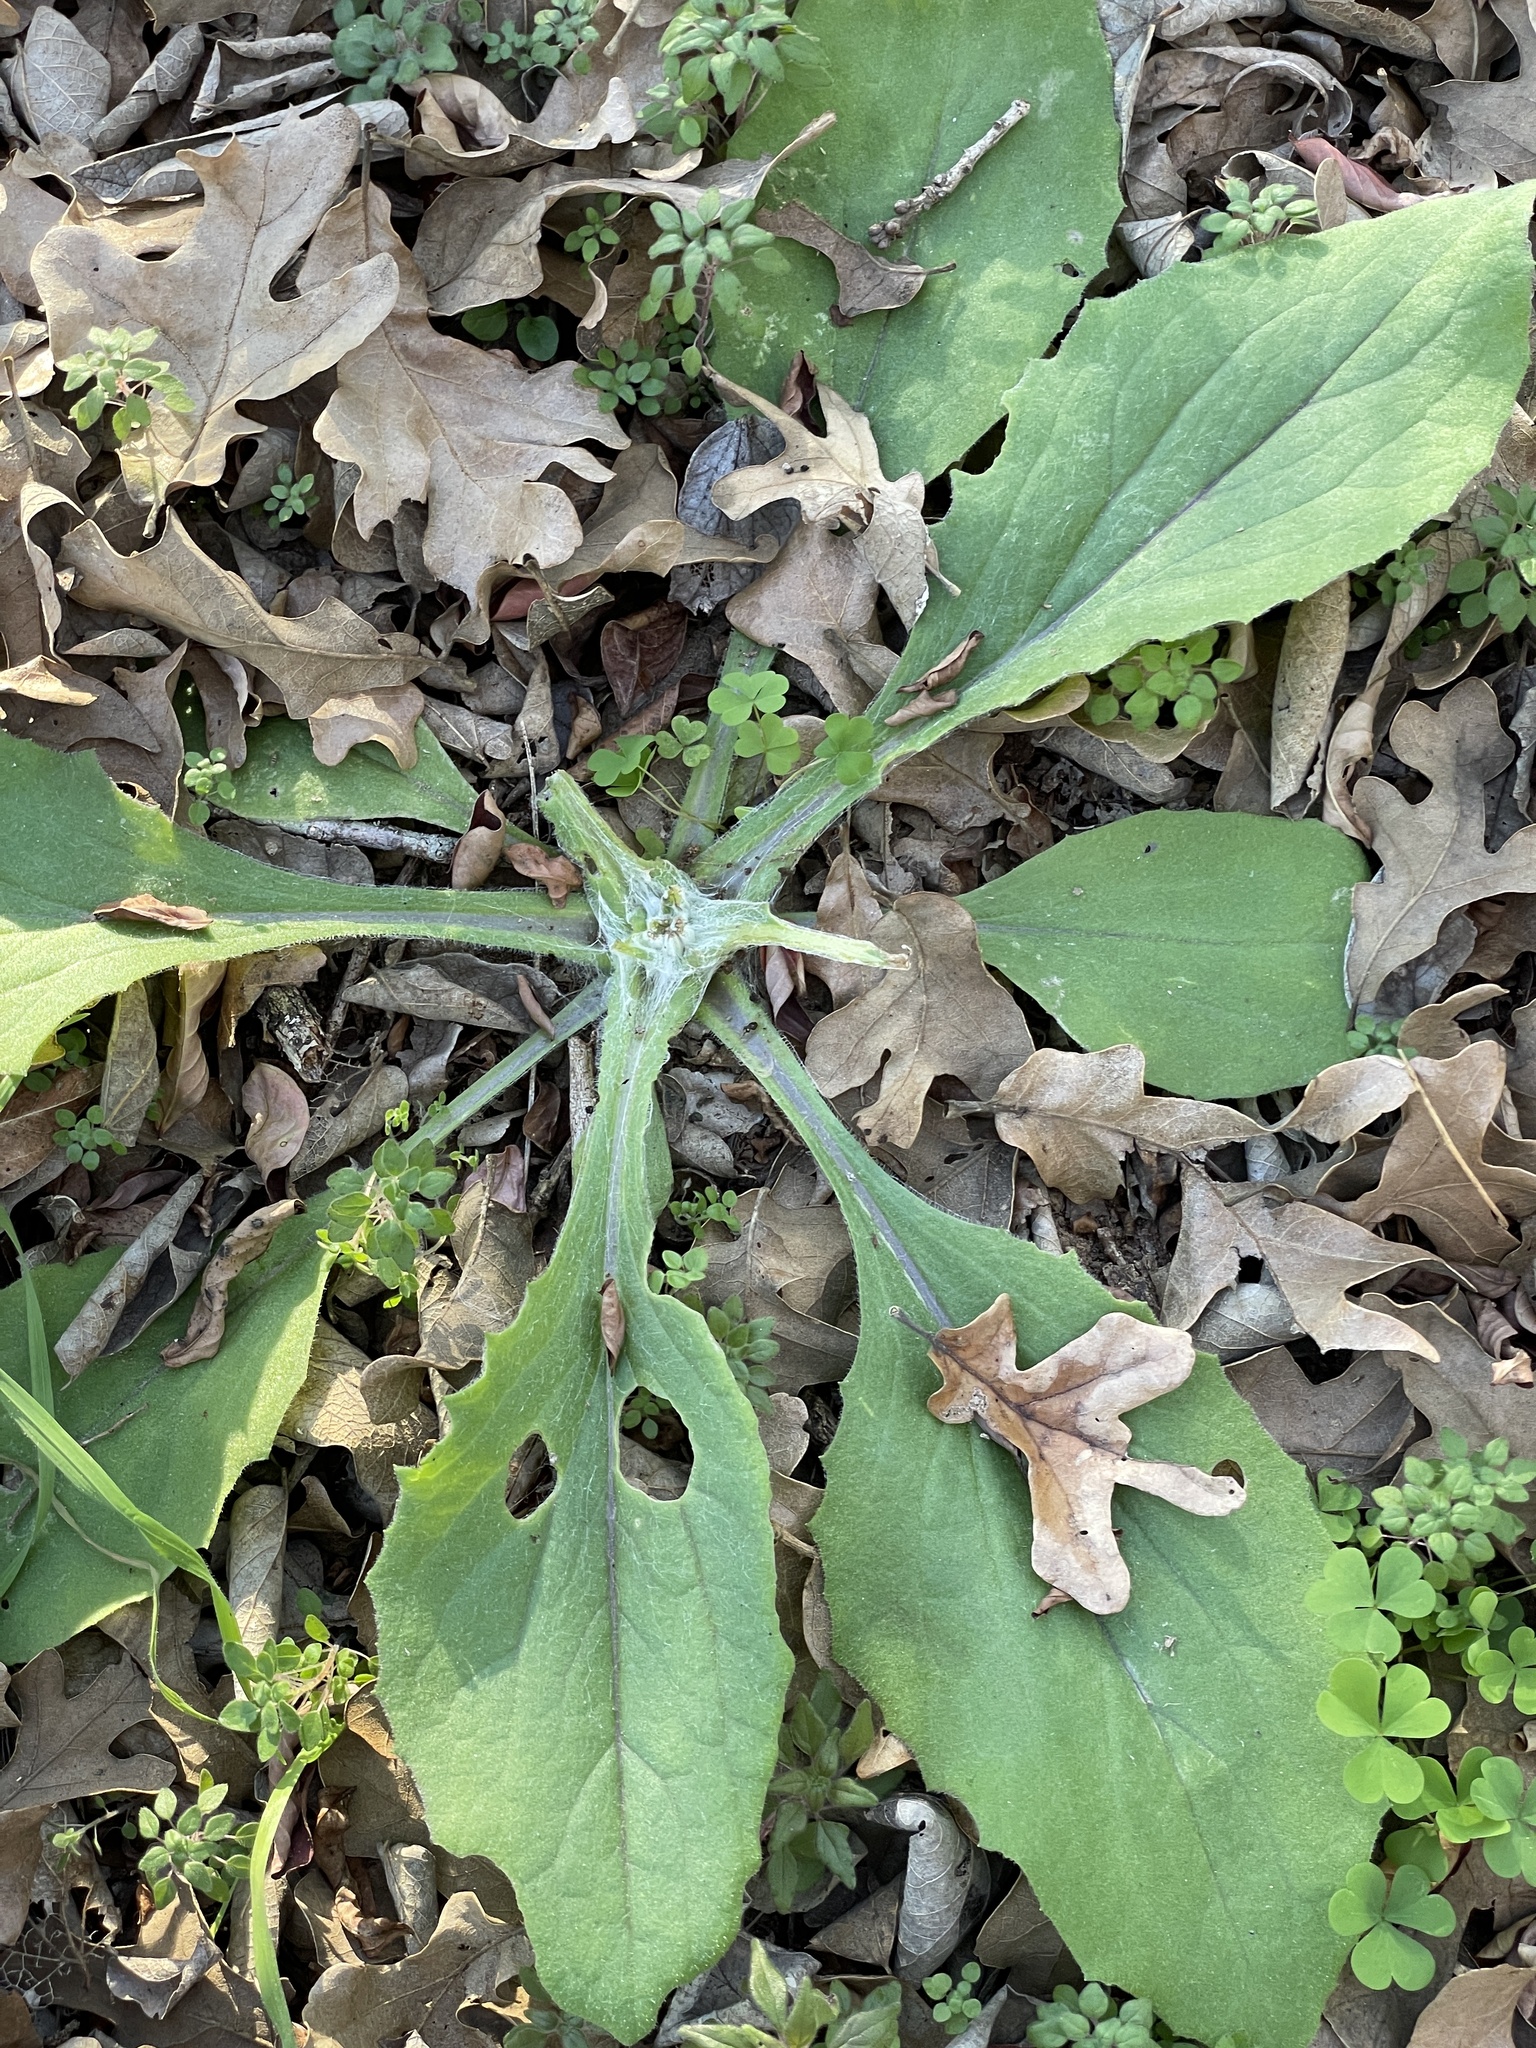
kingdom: Plantae
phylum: Tracheophyta
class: Magnoliopsida
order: Asterales
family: Asteraceae
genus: Senecio
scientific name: Senecio ampullaceus
